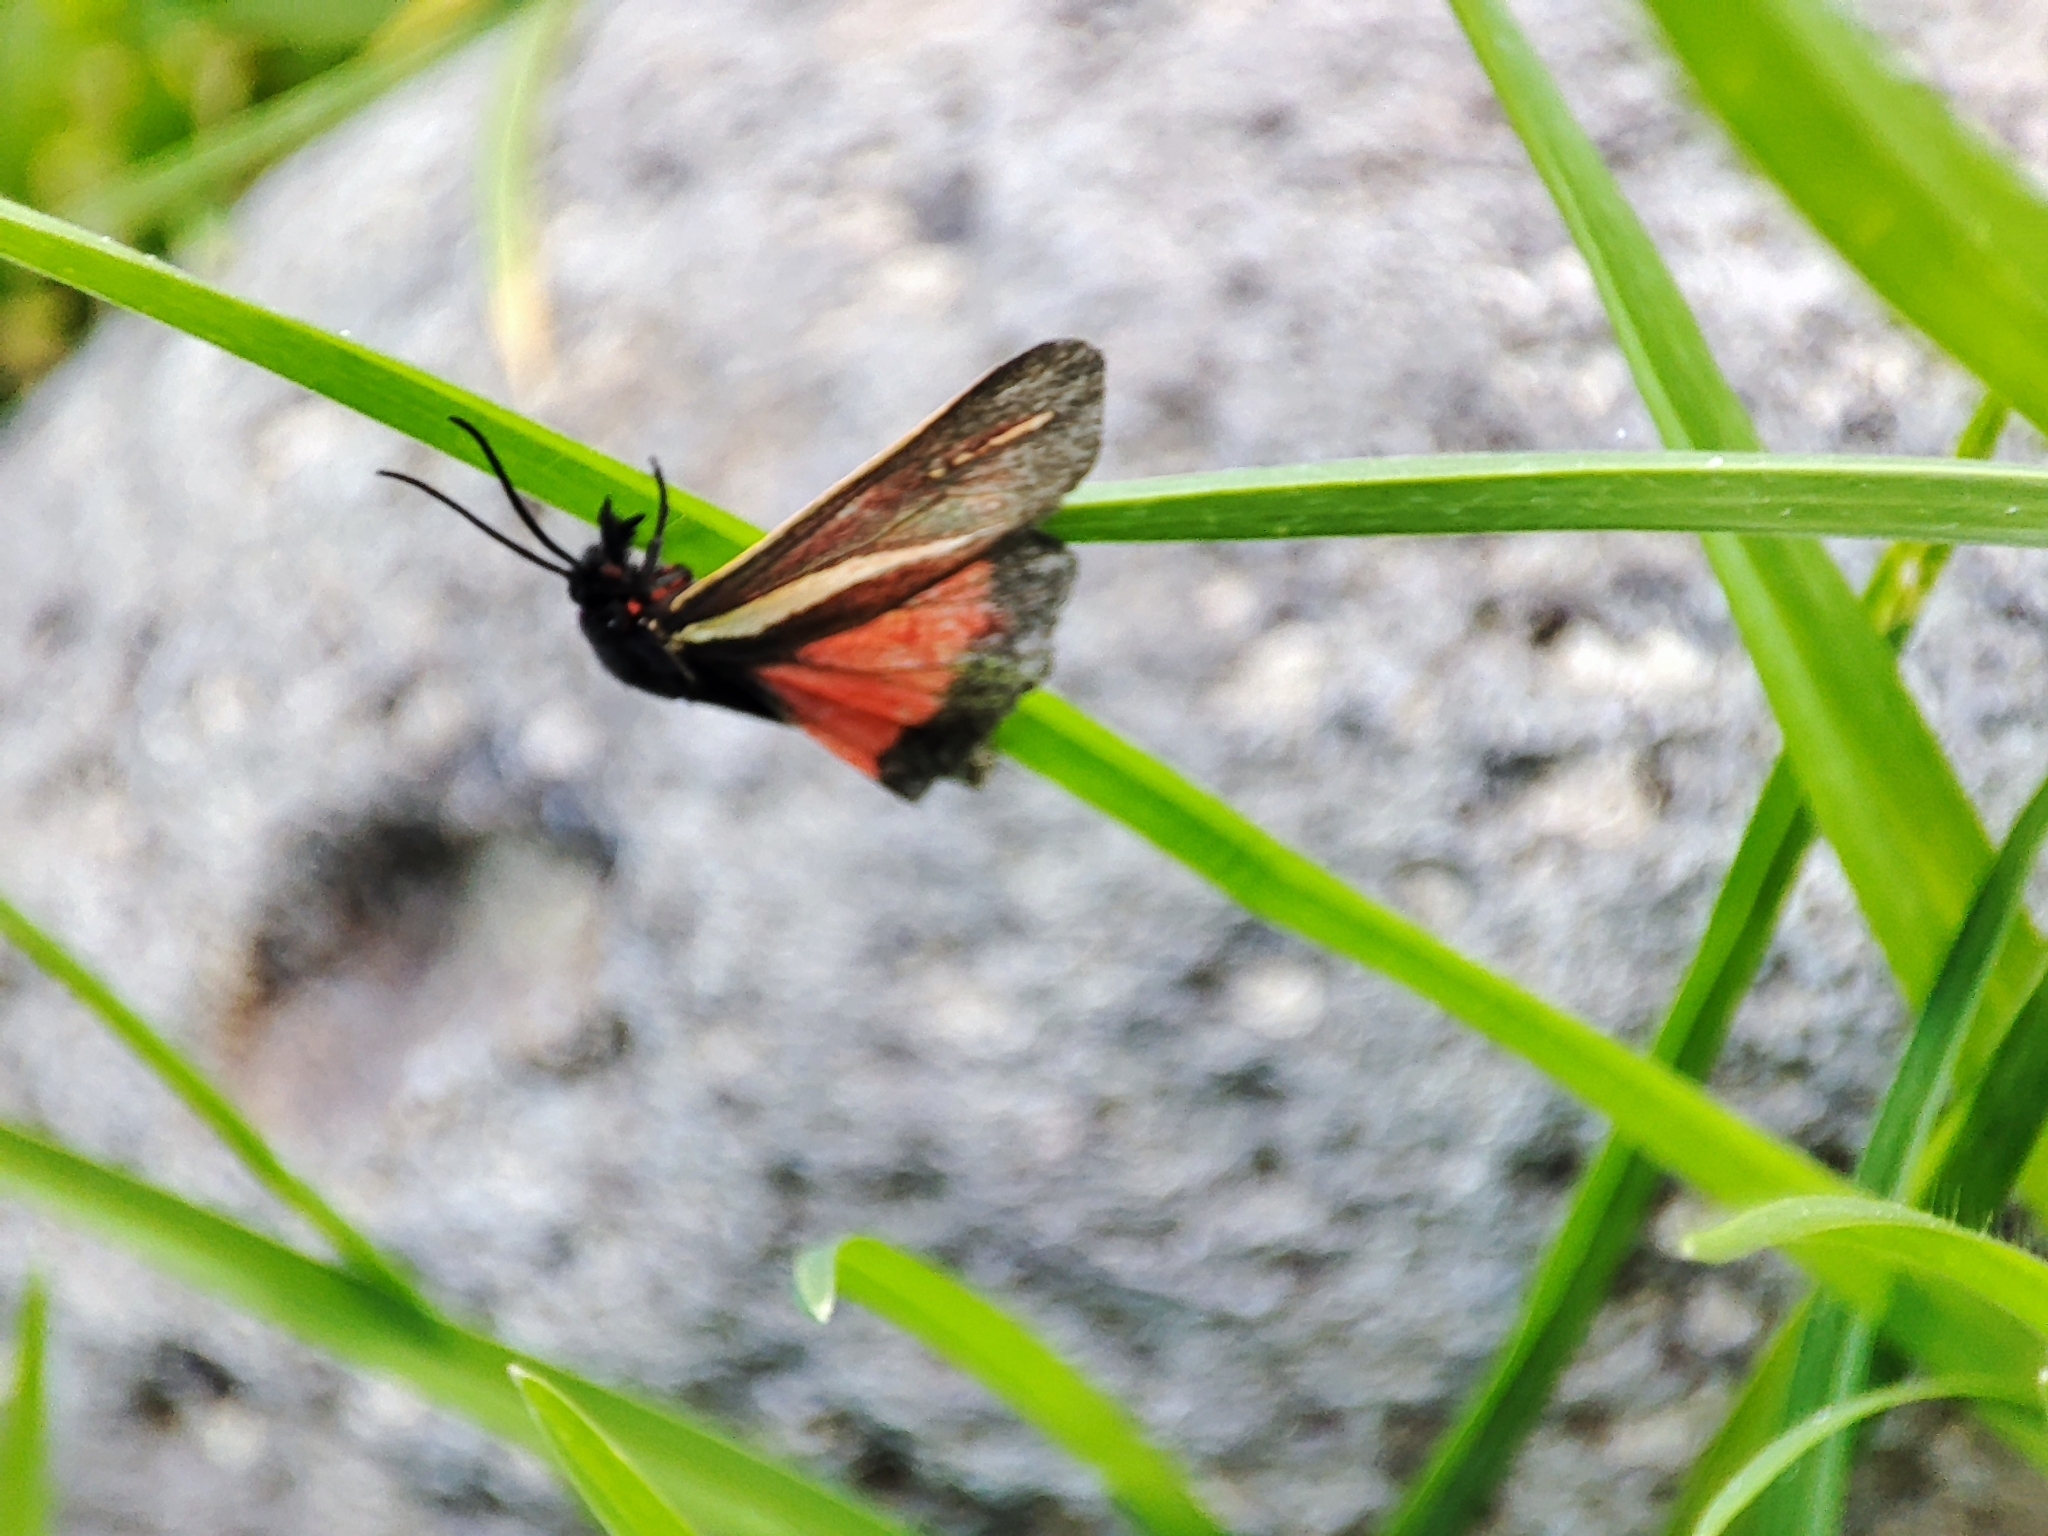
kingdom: Animalia
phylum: Arthropoda
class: Insecta
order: Lepidoptera
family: Erebidae
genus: Virbia
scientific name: Virbia polyphron
